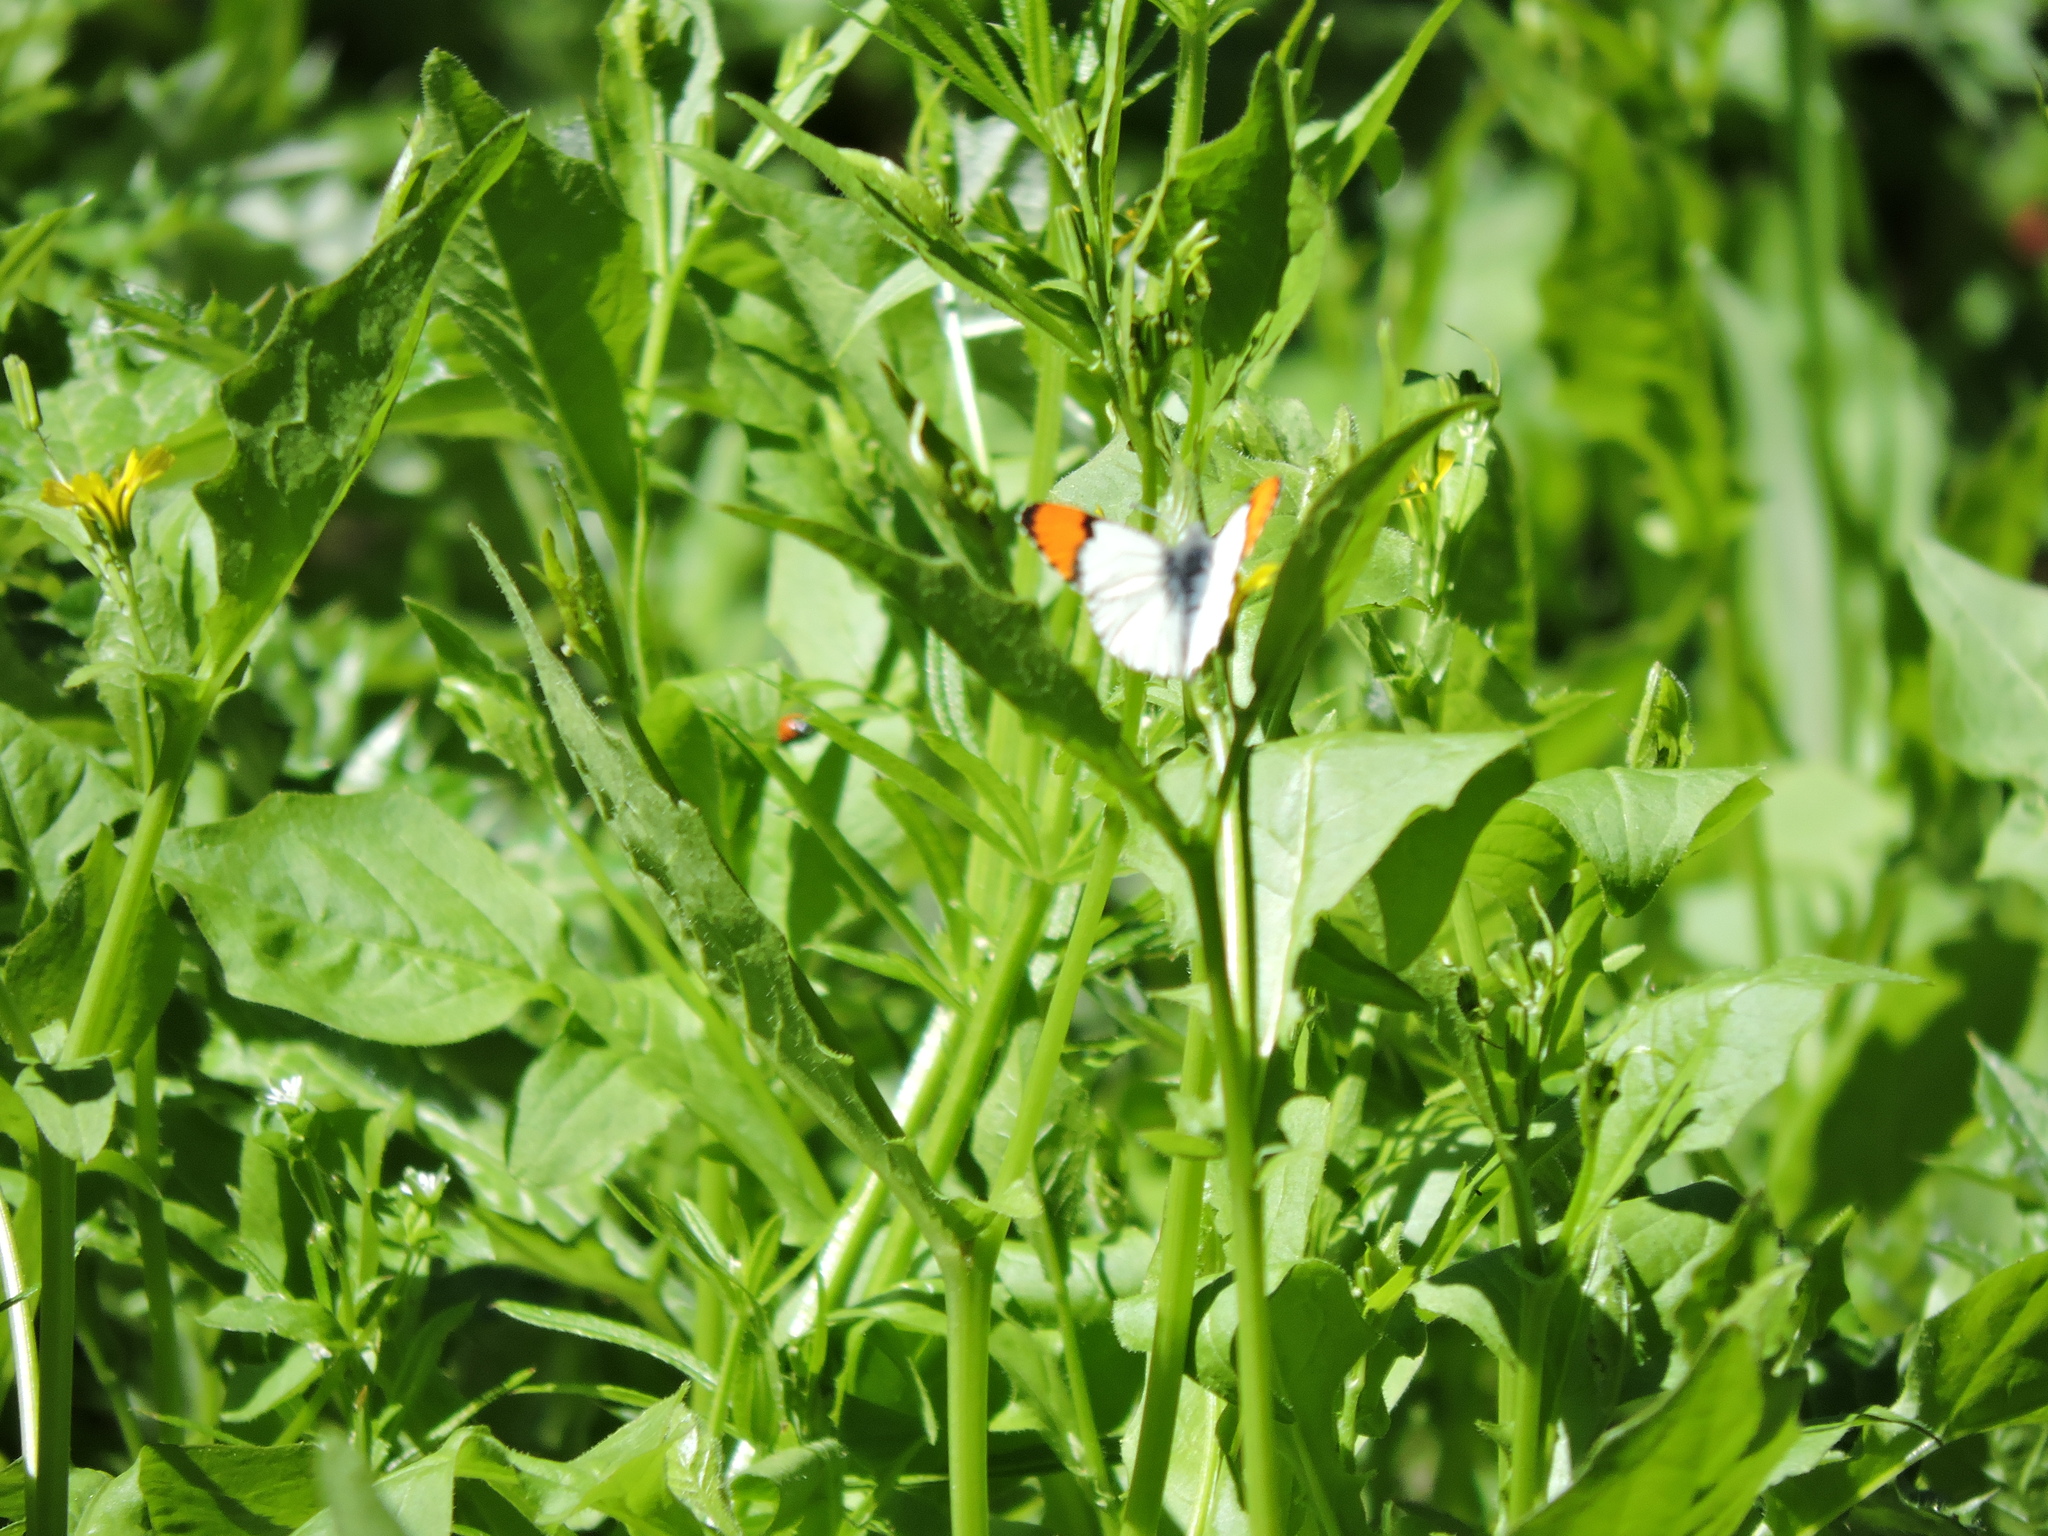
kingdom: Animalia
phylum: Arthropoda
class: Insecta
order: Lepidoptera
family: Pieridae
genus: Anthocharis
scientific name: Anthocharis sara
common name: Sara's orangetip
